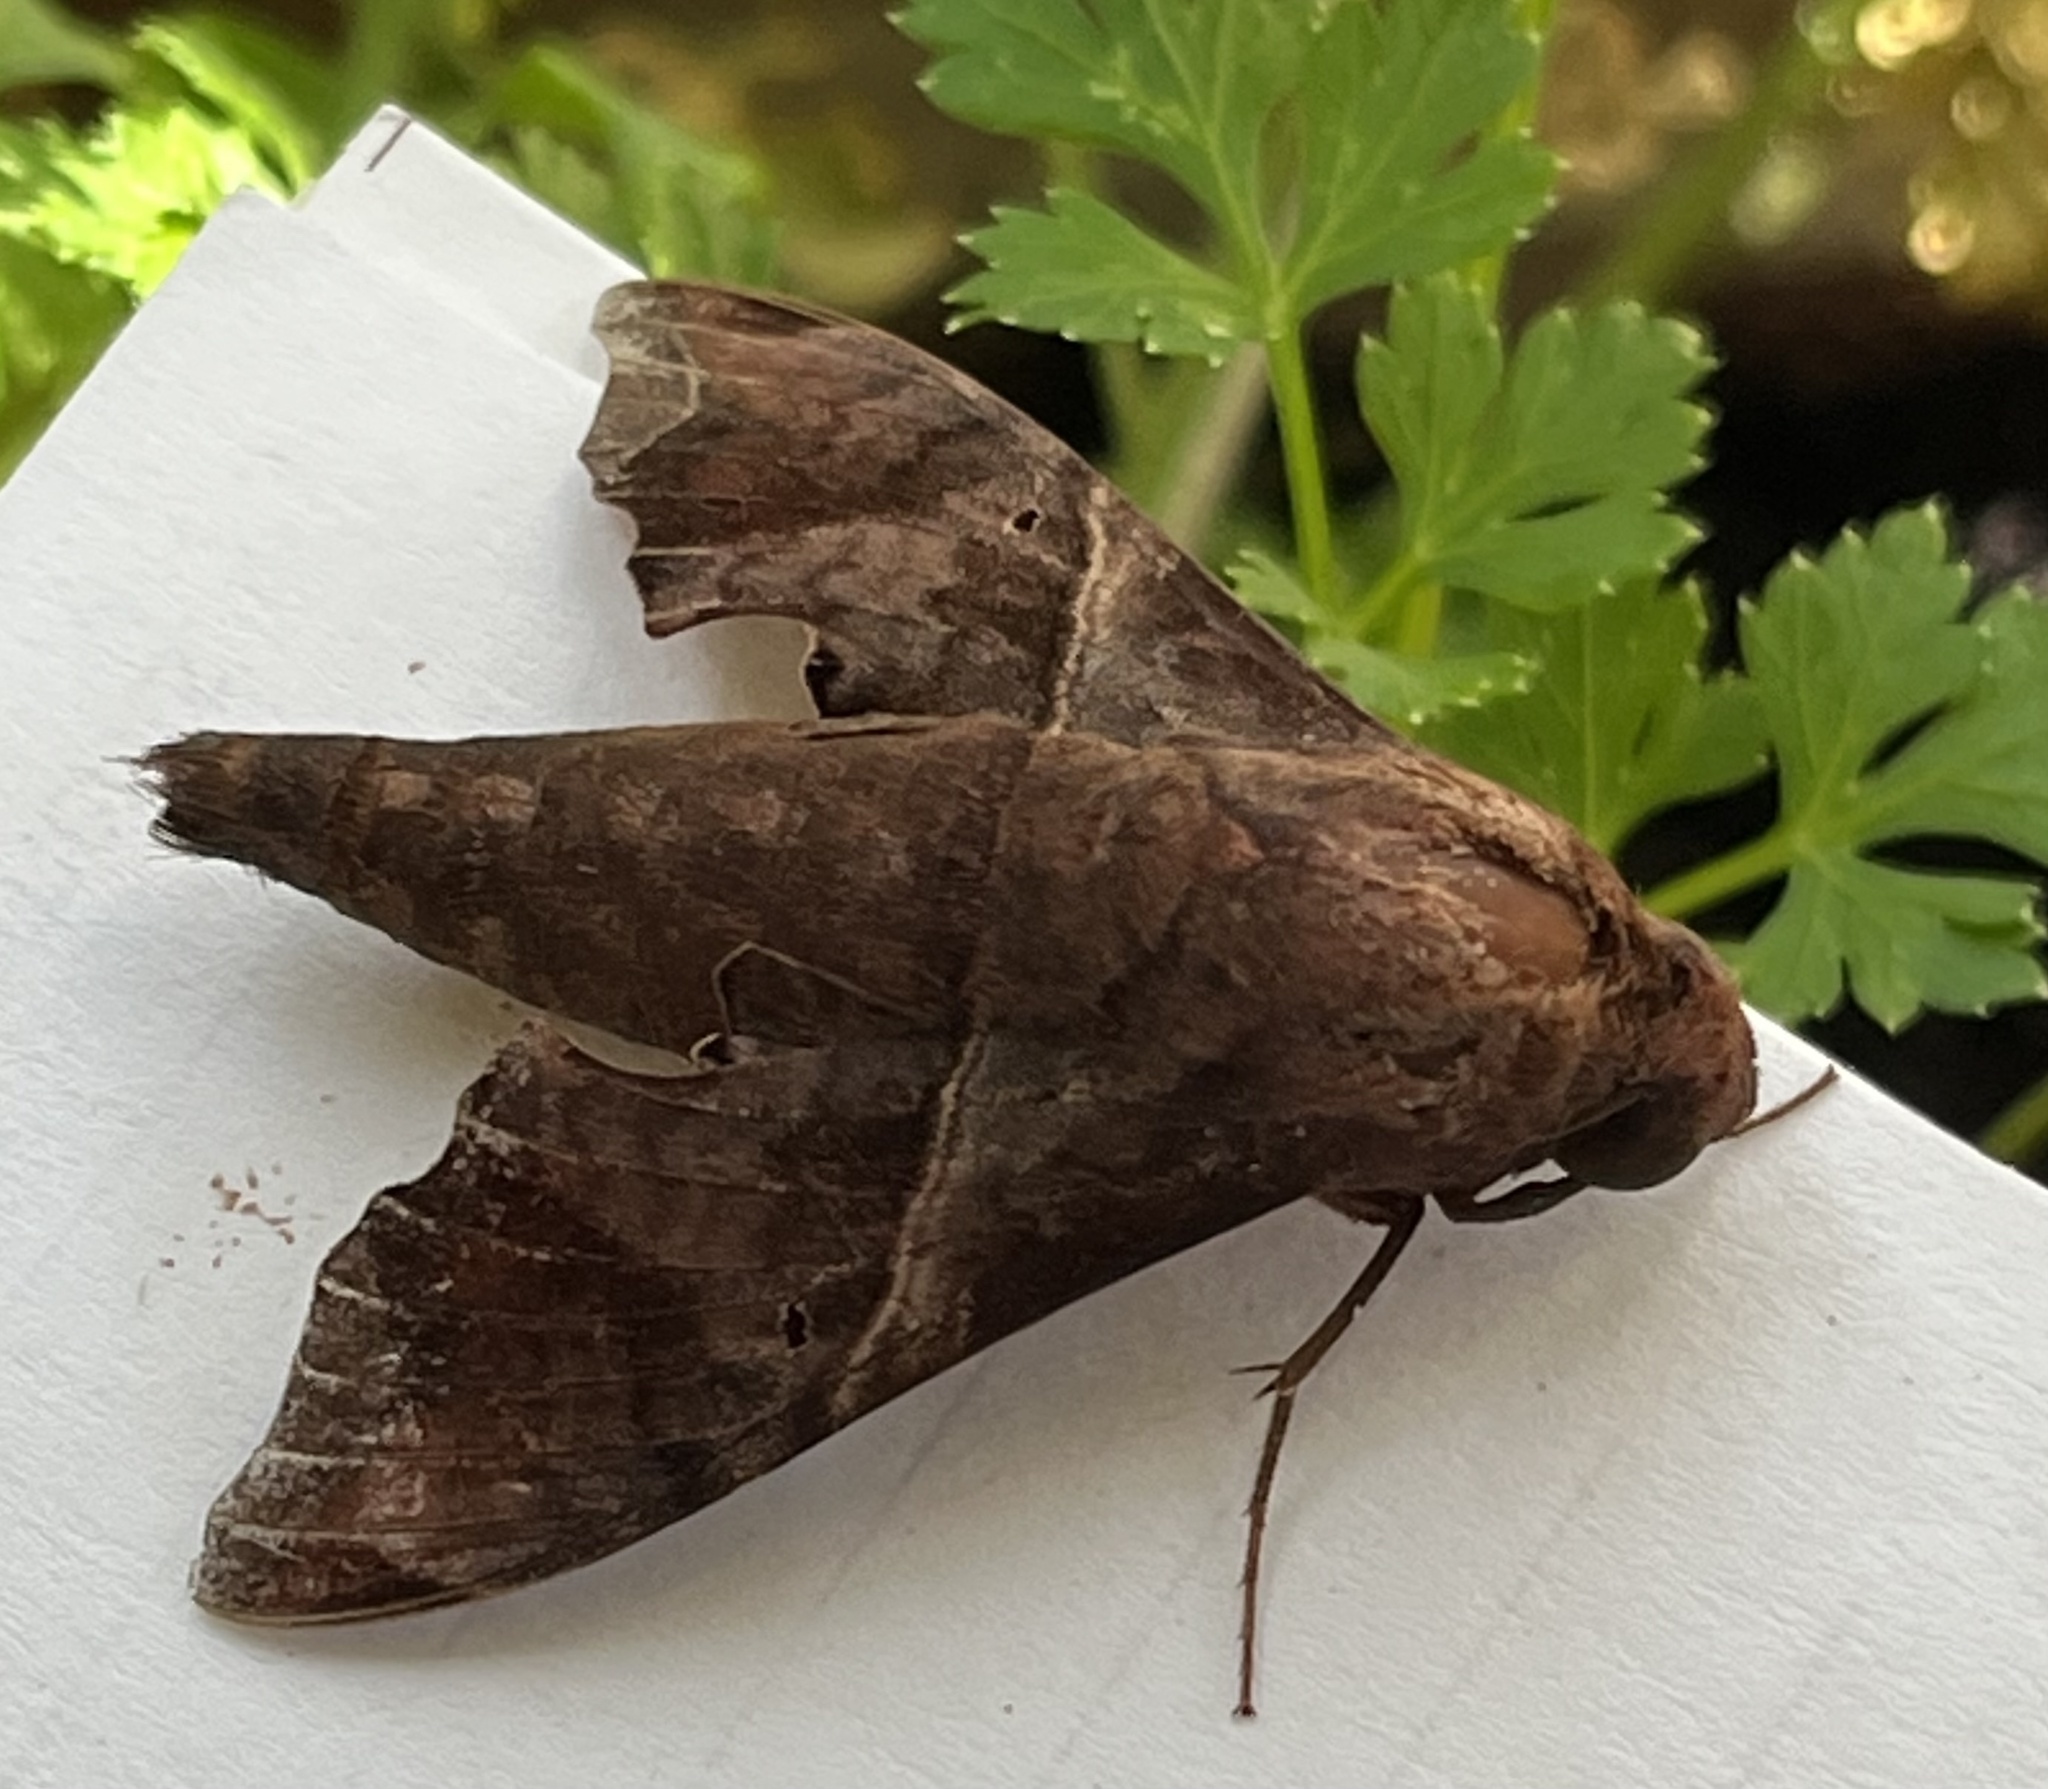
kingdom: Animalia
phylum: Arthropoda
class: Insecta
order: Lepidoptera
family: Sphingidae
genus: Enyo
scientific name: Enyo lugubris
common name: Mournful sphinx
